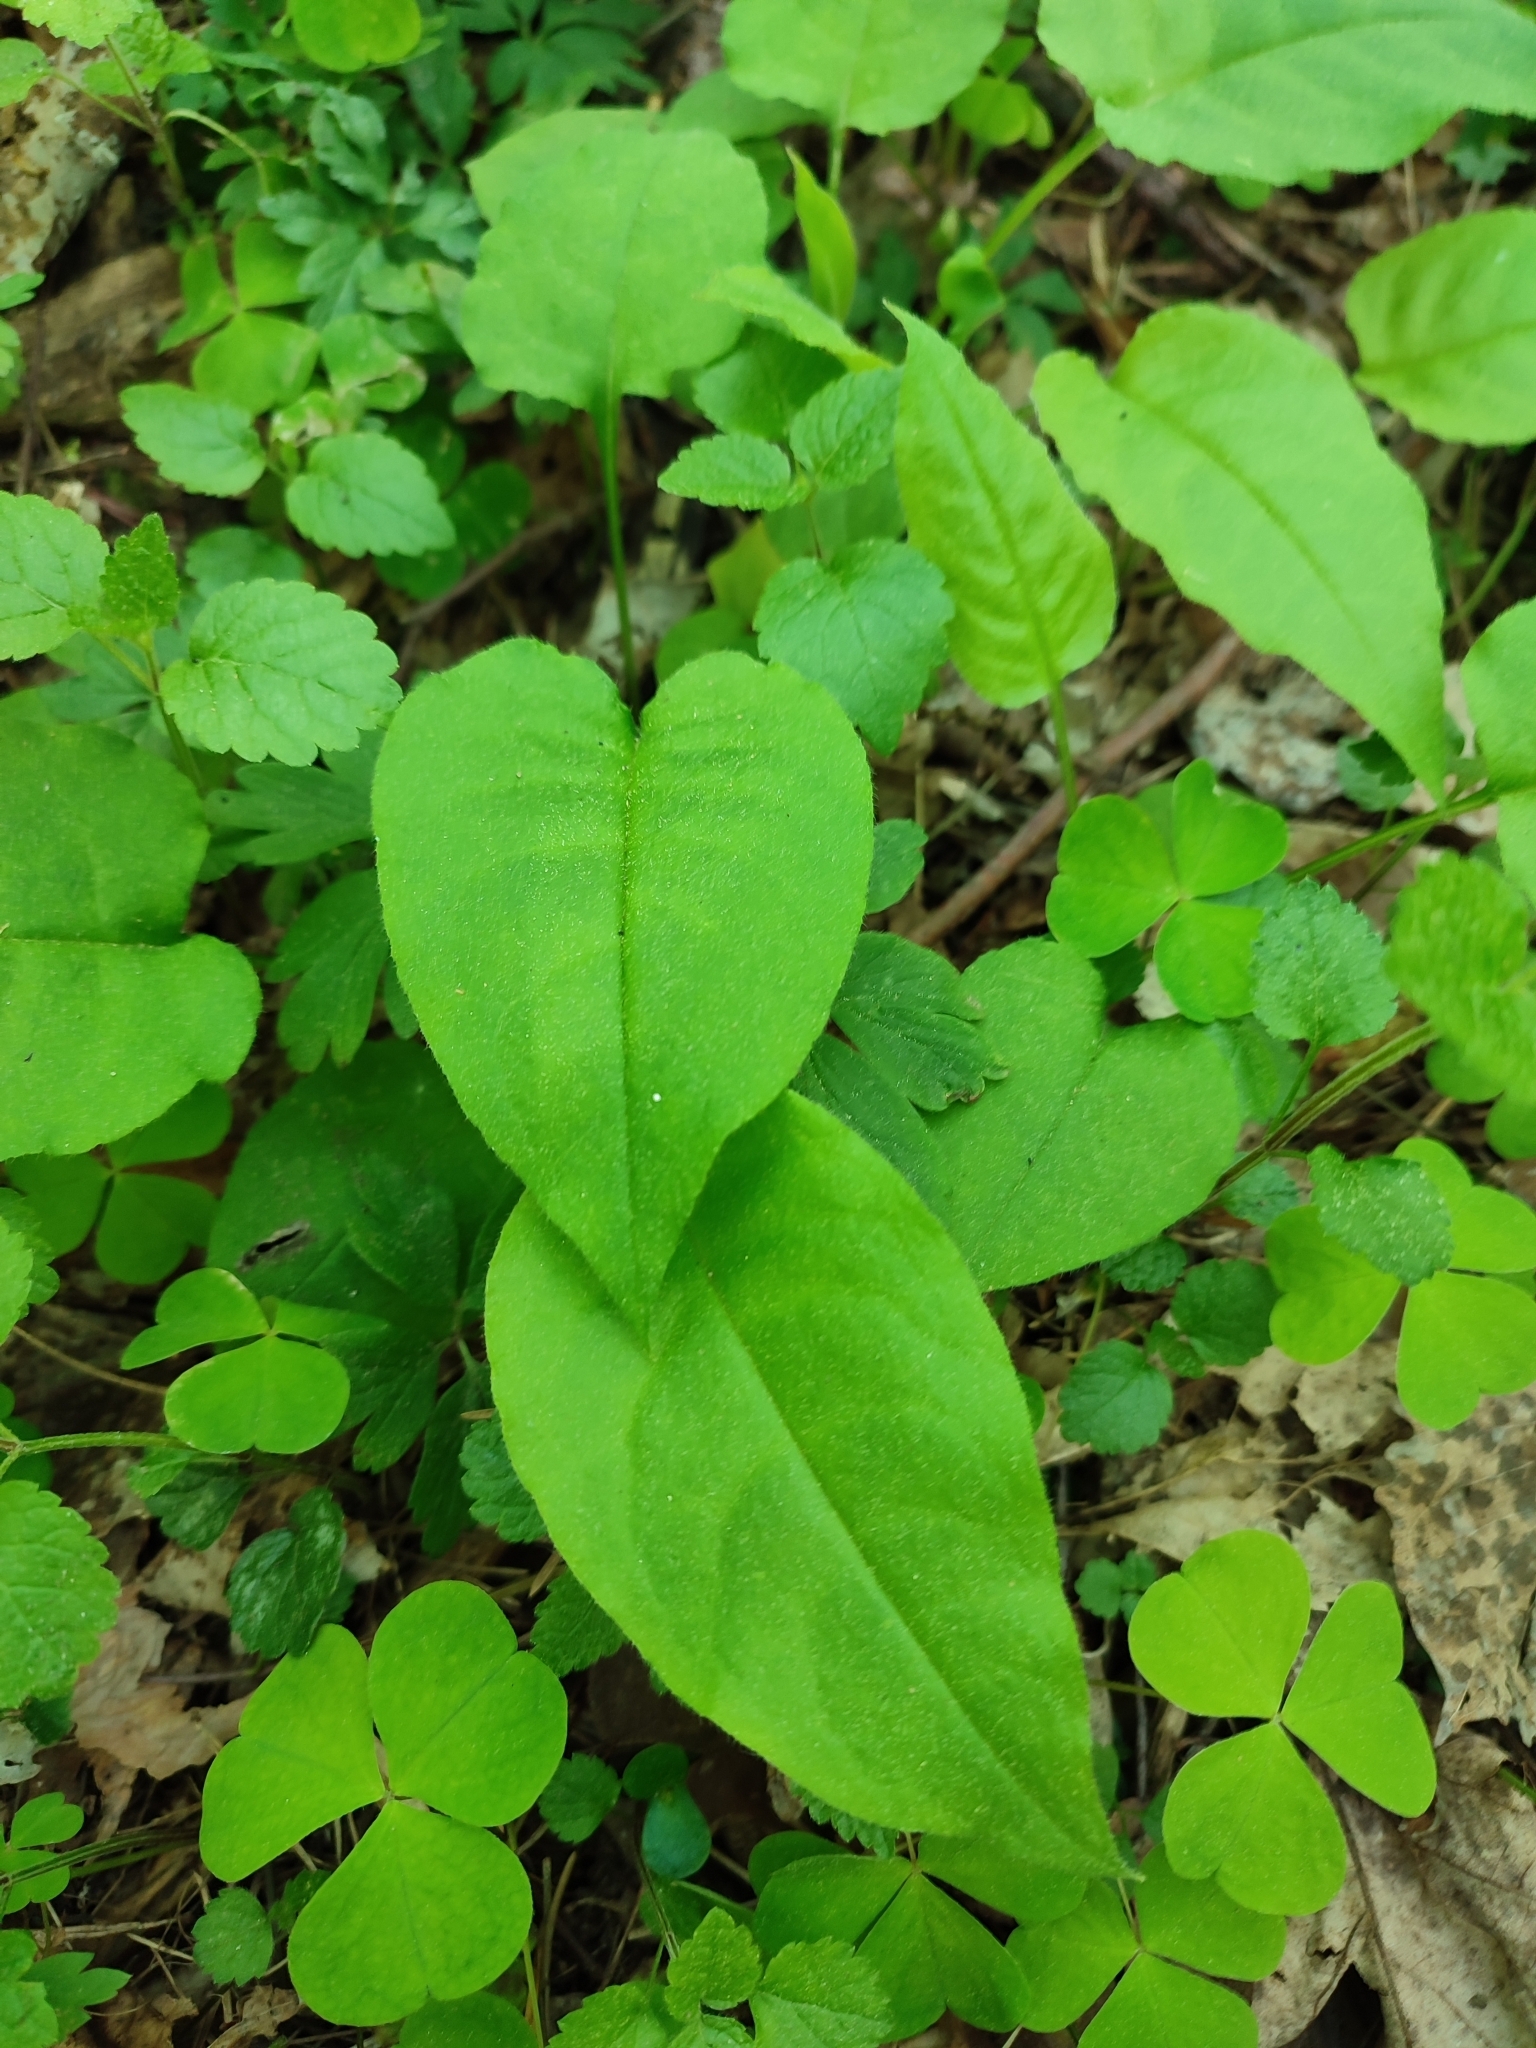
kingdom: Plantae
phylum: Tracheophyta
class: Magnoliopsida
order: Boraginales
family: Boraginaceae
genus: Pulmonaria
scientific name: Pulmonaria obscura
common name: Suffolk lungwort
